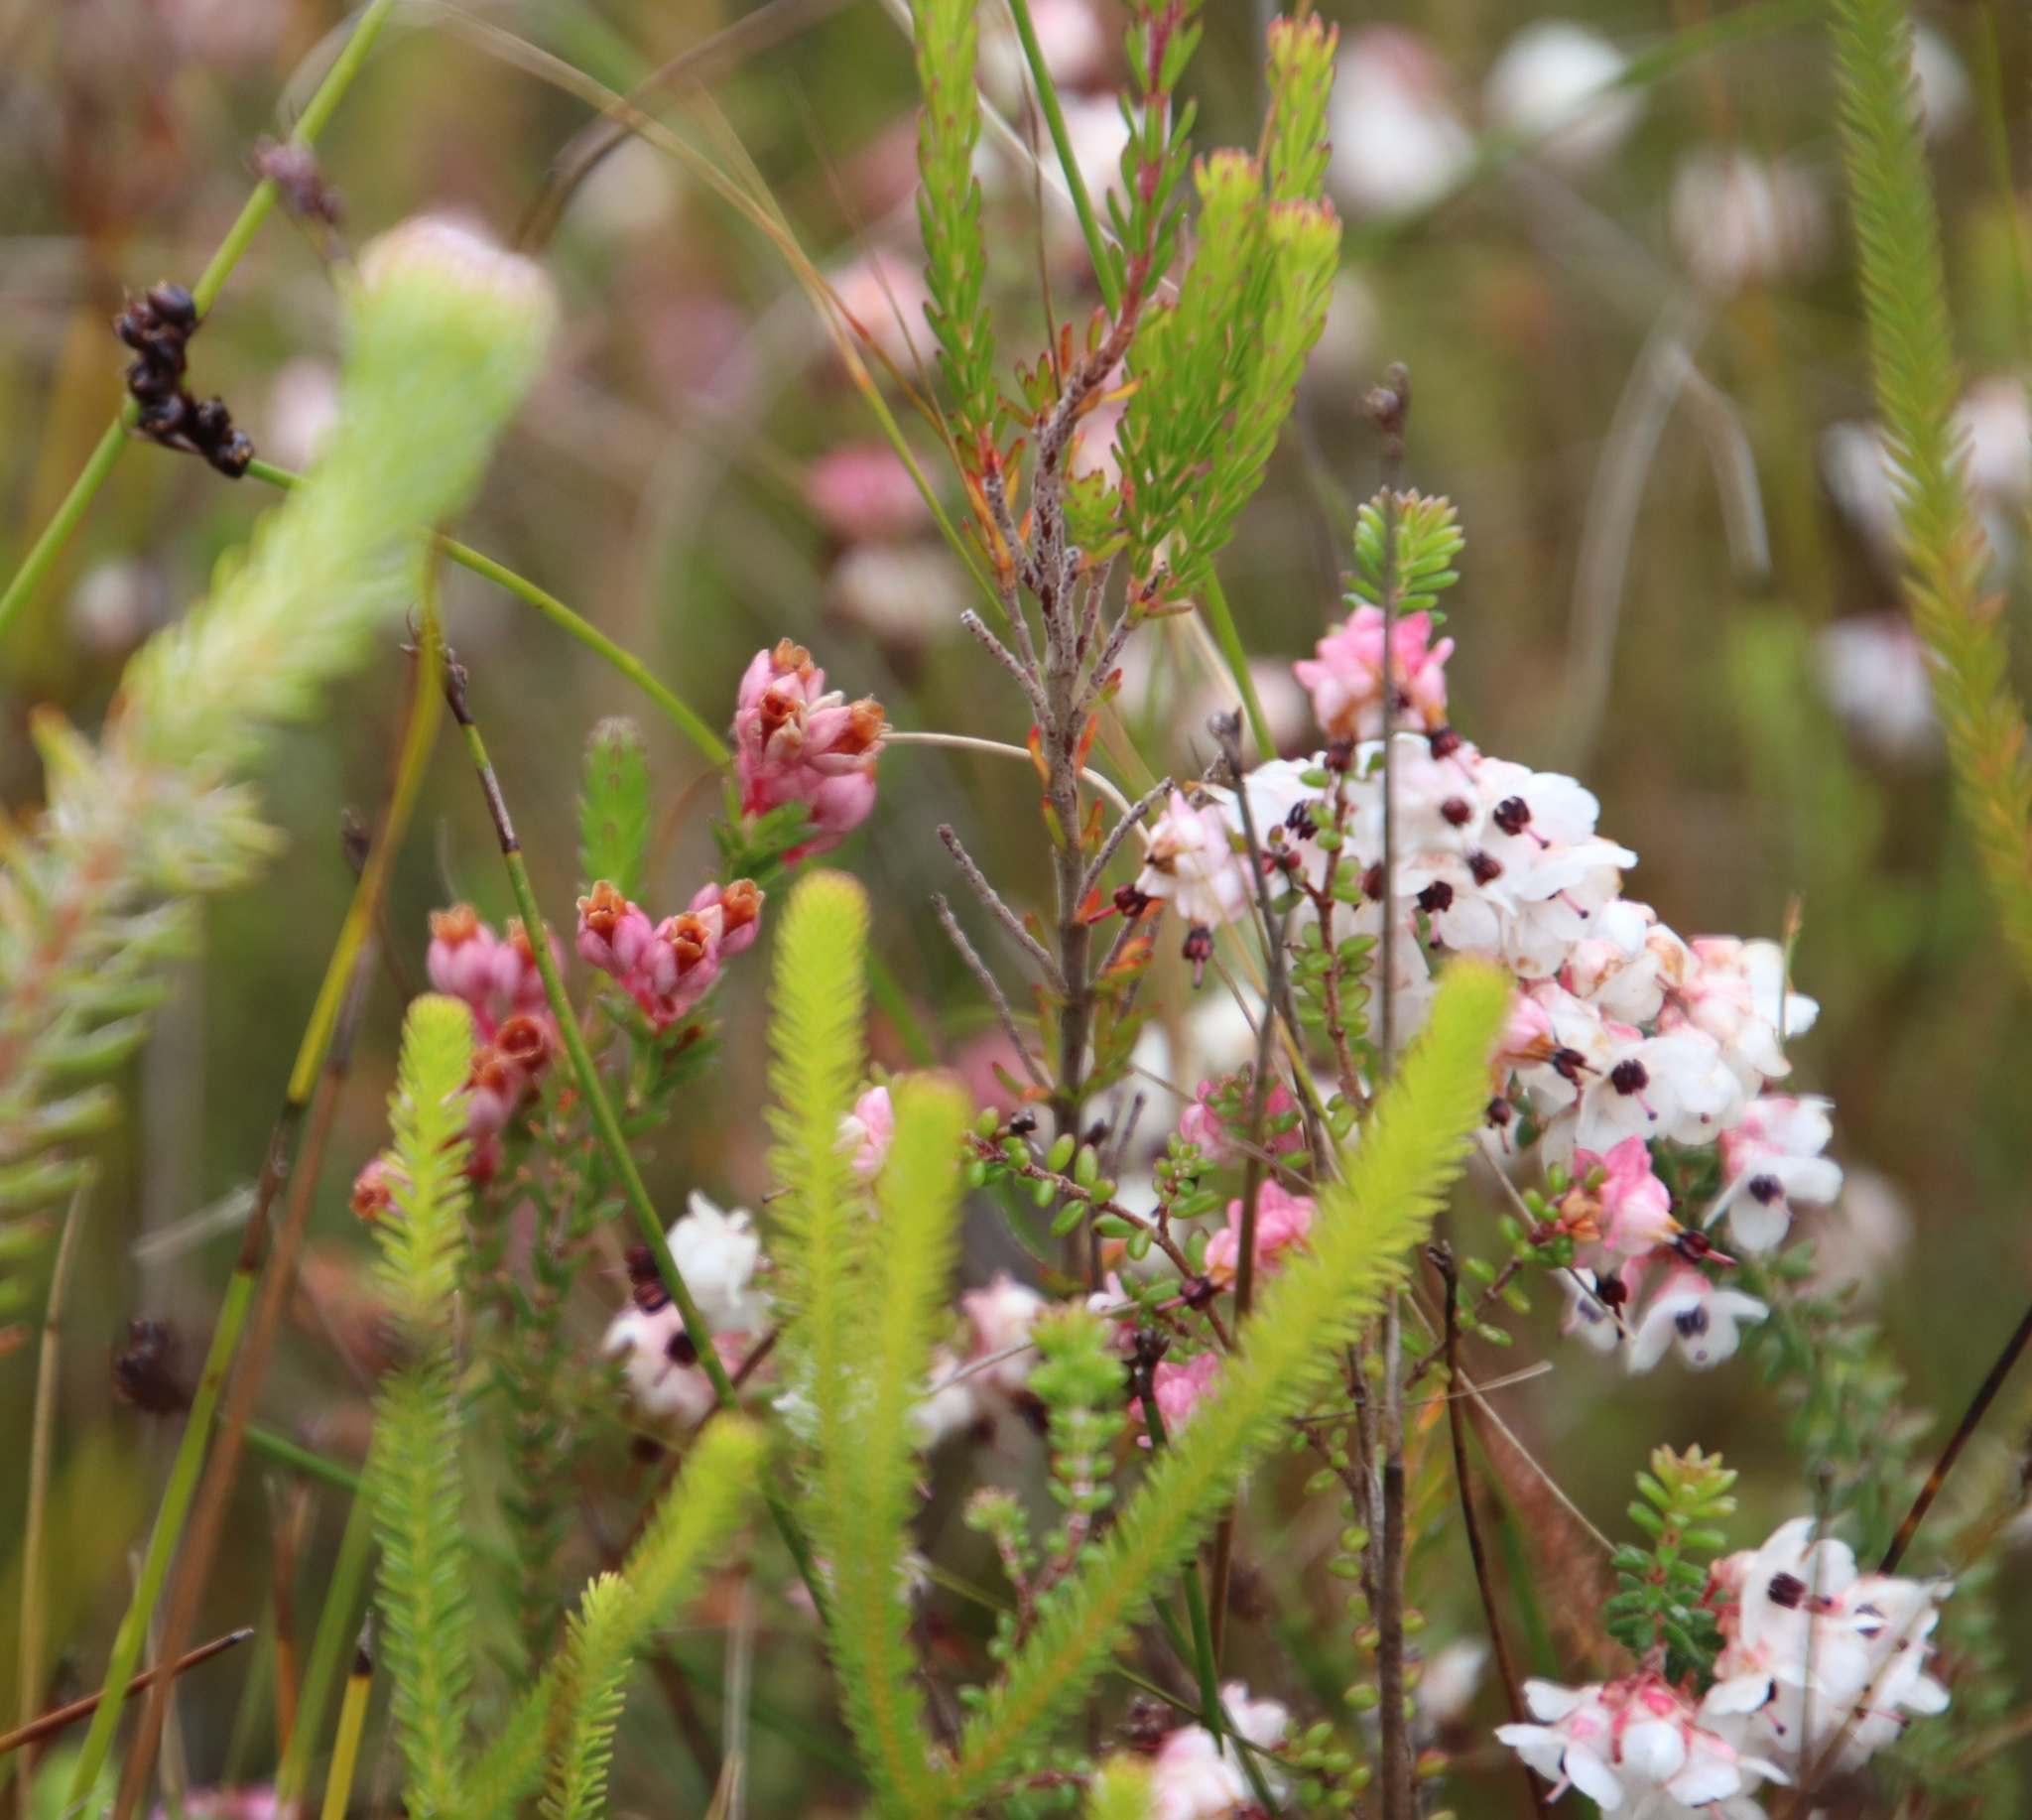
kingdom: Plantae
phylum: Tracheophyta
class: Magnoliopsida
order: Ericales
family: Ericaceae
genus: Erica
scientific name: Erica brevifolia
